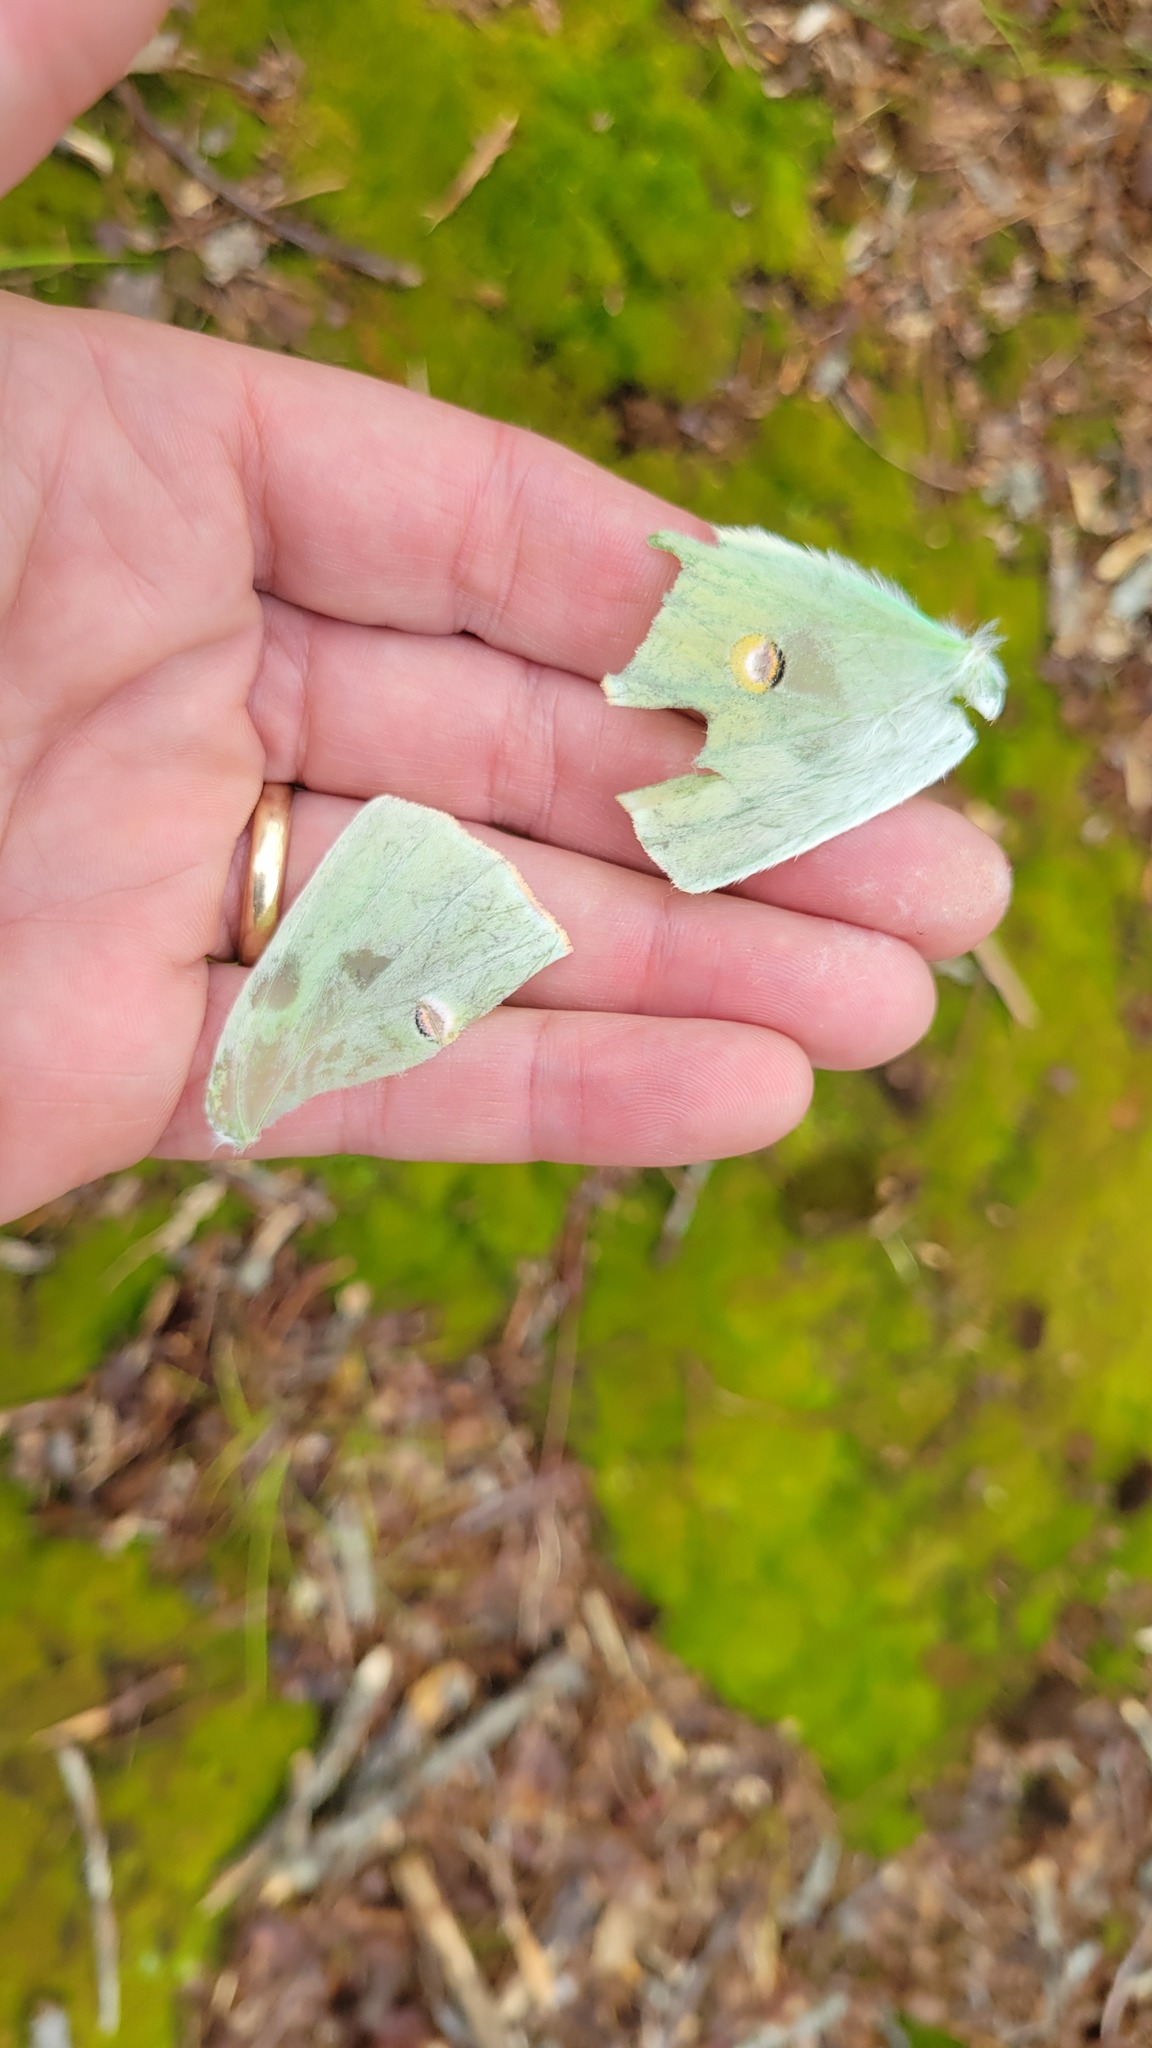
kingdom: Animalia
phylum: Arthropoda
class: Insecta
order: Lepidoptera
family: Saturniidae
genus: Actias
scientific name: Actias luna
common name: Luna moth
